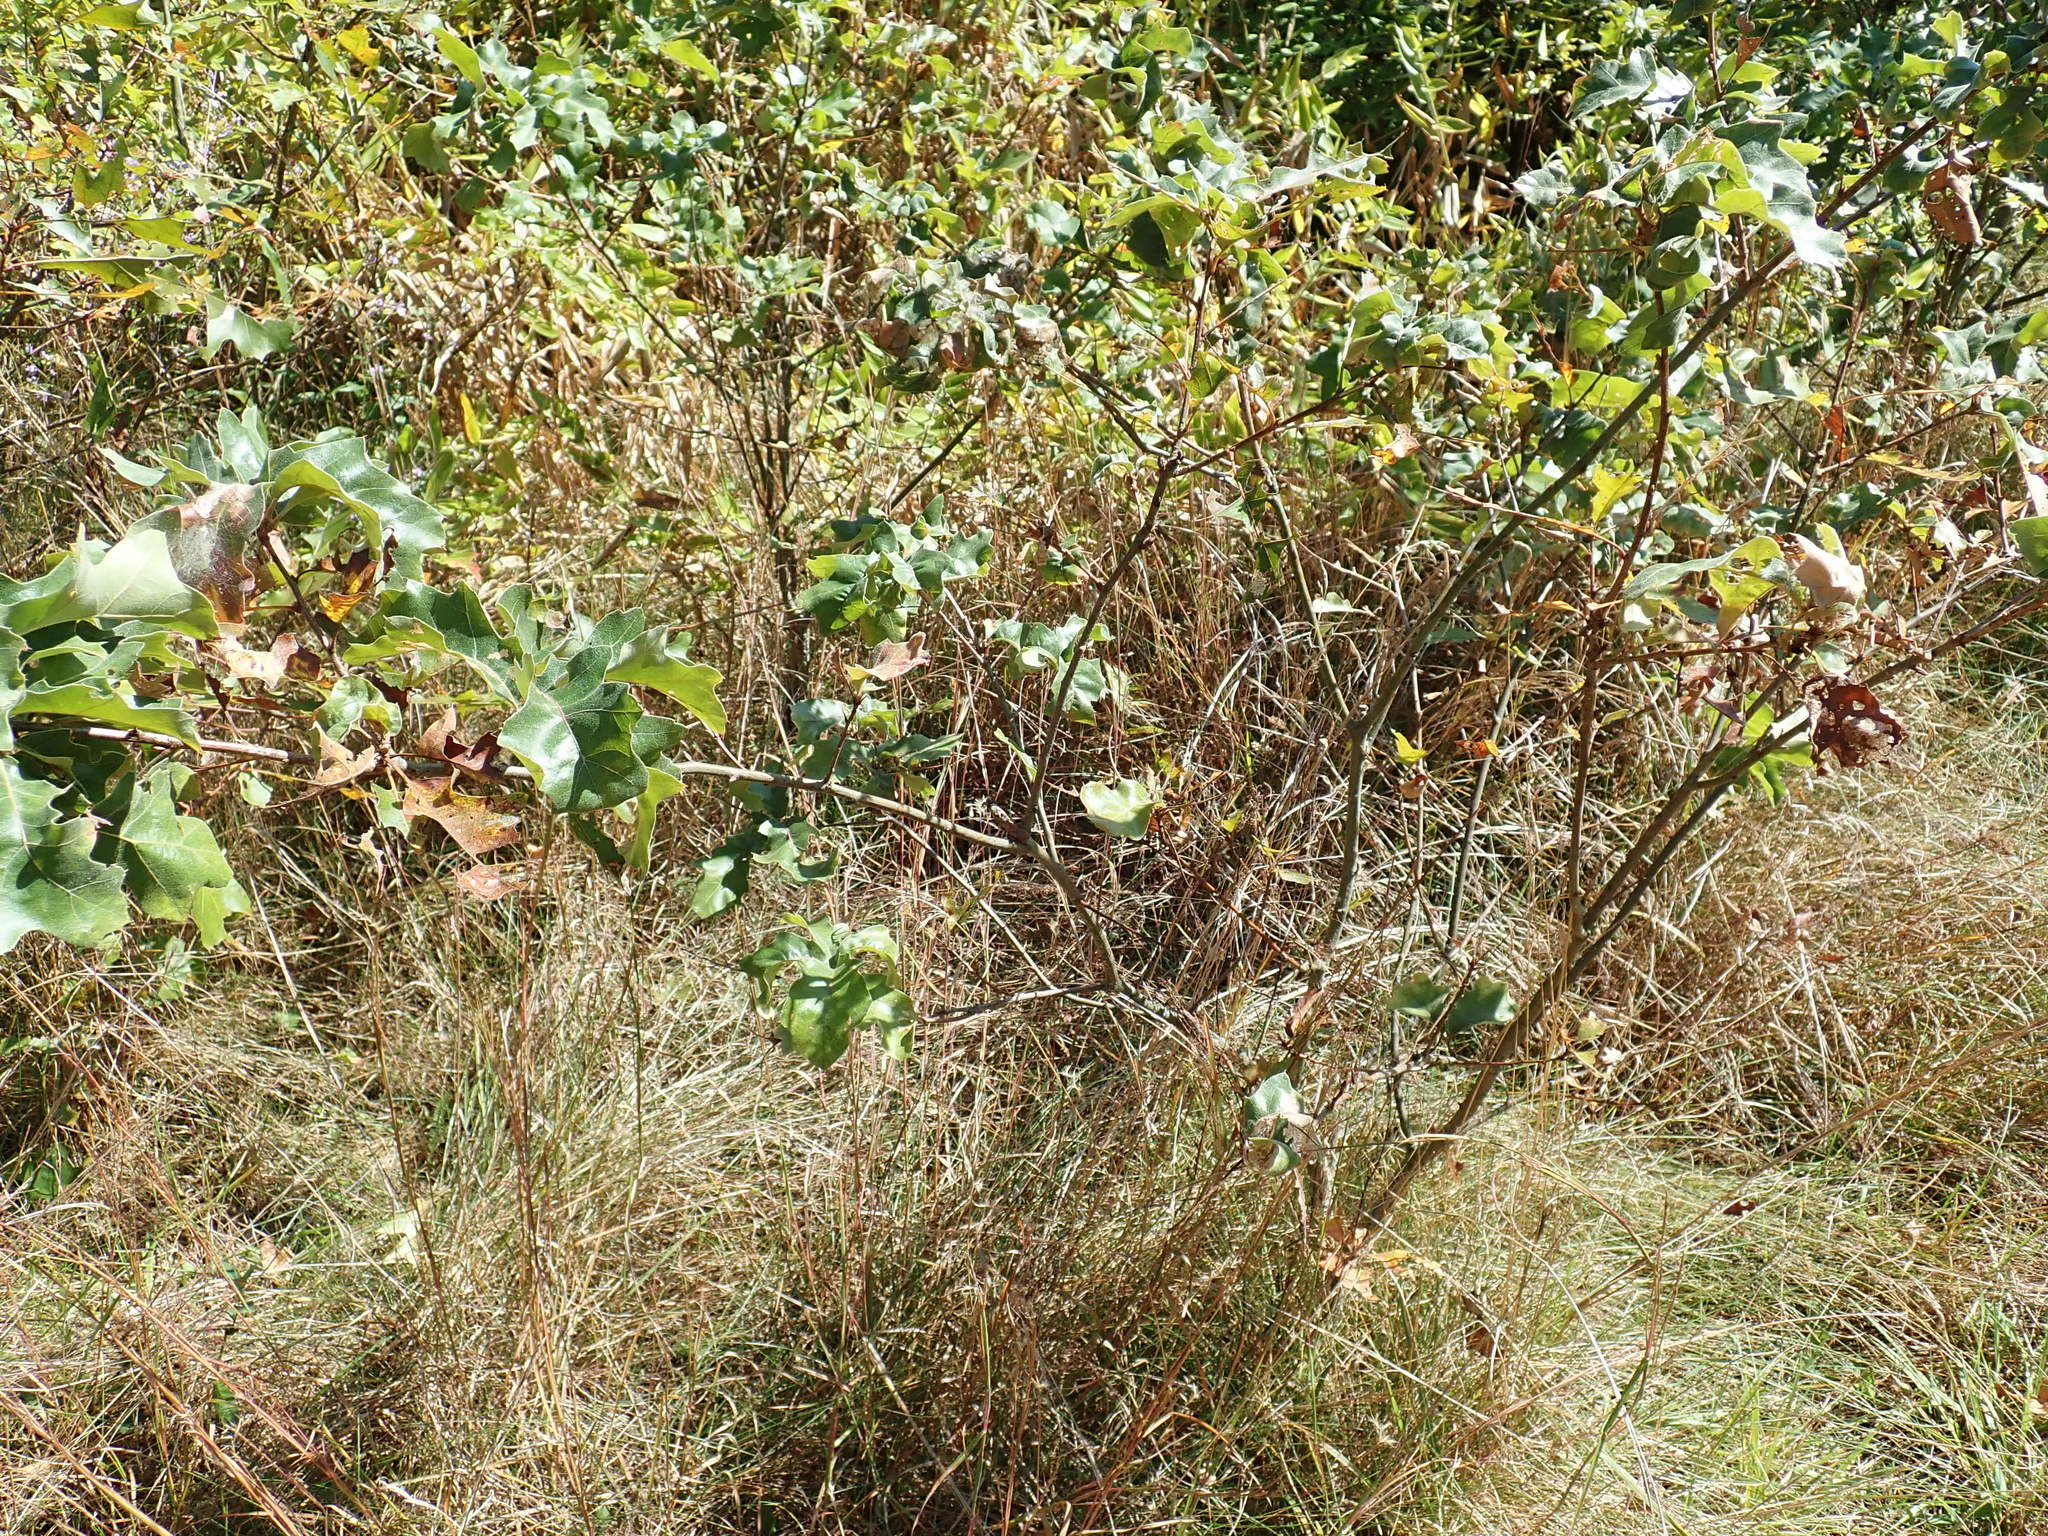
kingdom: Plantae
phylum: Tracheophyta
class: Magnoliopsida
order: Fagales
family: Fagaceae
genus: Quercus
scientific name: Quercus ilicifolia
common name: Bear oak
